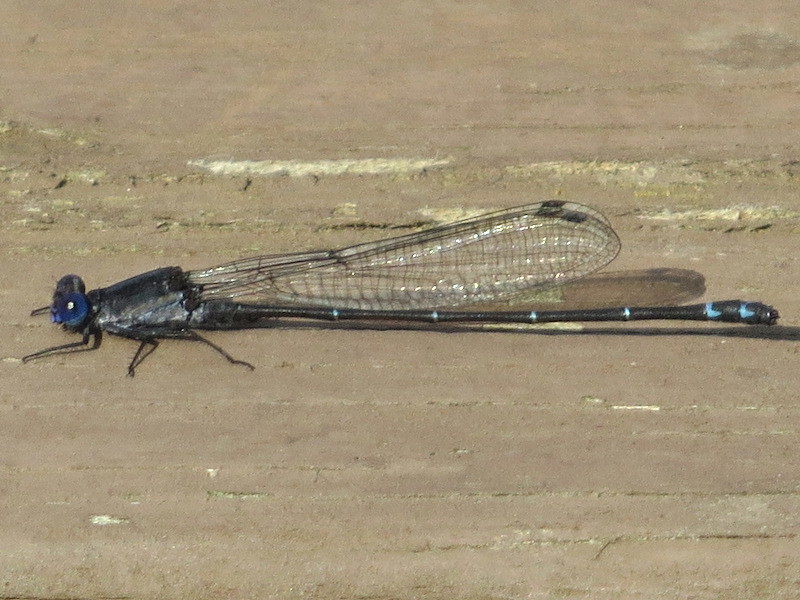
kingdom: Animalia
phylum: Arthropoda
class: Insecta
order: Odonata
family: Coenagrionidae
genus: Argia
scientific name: Argia translata
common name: Dusky dancer
